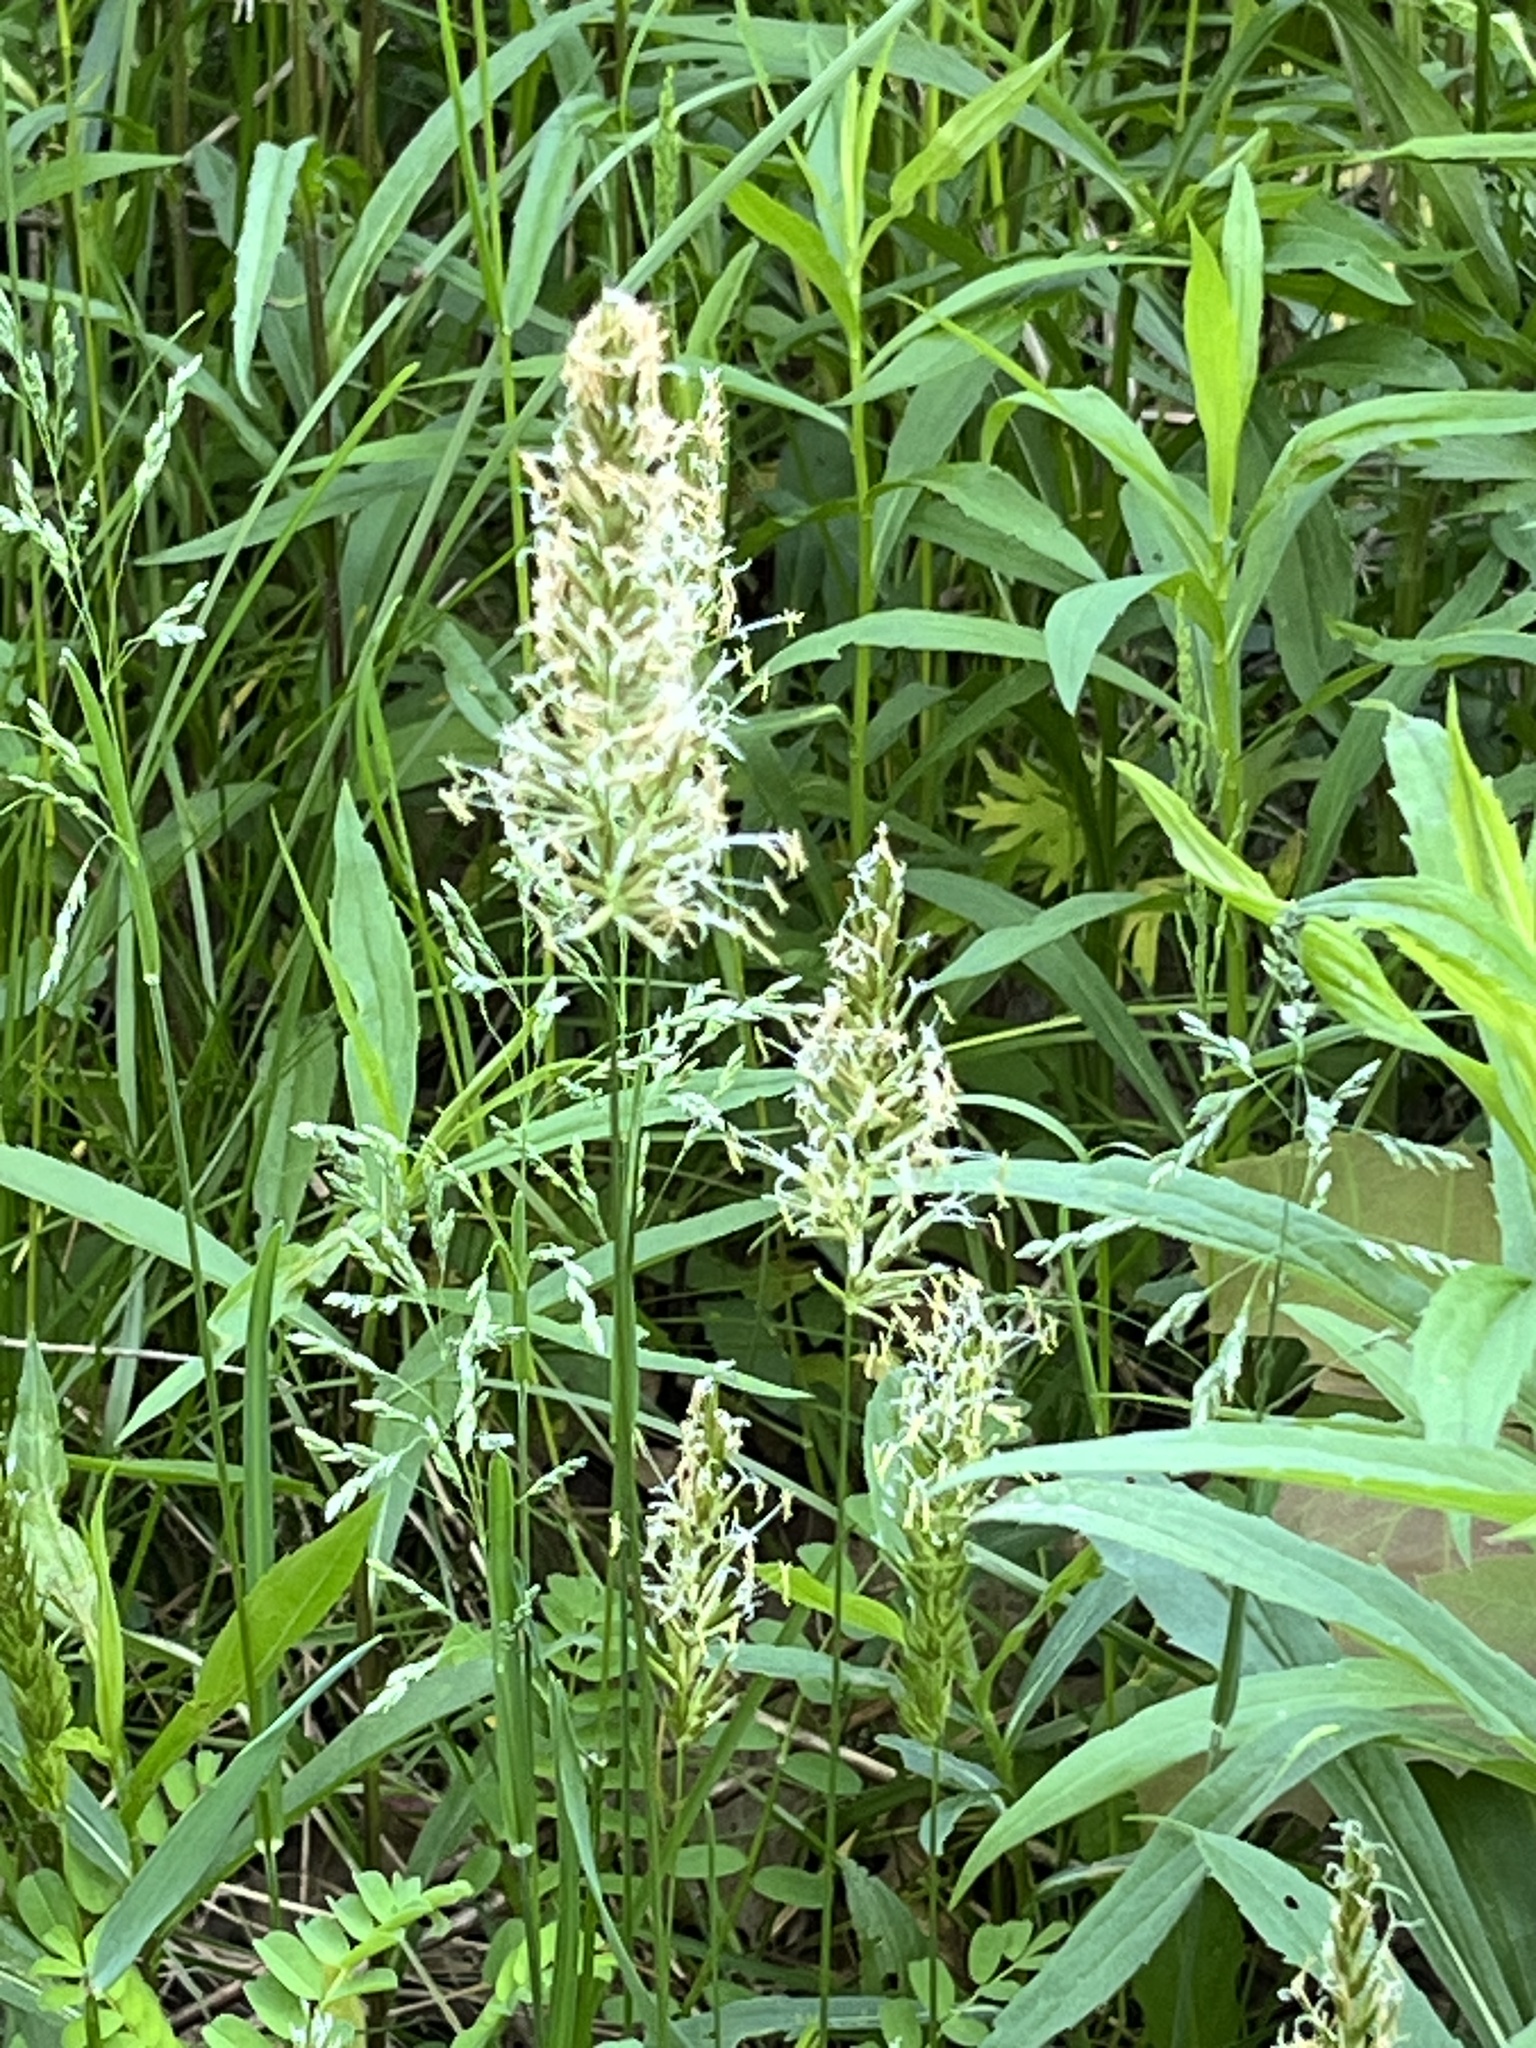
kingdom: Plantae
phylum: Tracheophyta
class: Liliopsida
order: Poales
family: Poaceae
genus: Anthoxanthum
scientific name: Anthoxanthum odoratum
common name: Sweet vernalgrass
